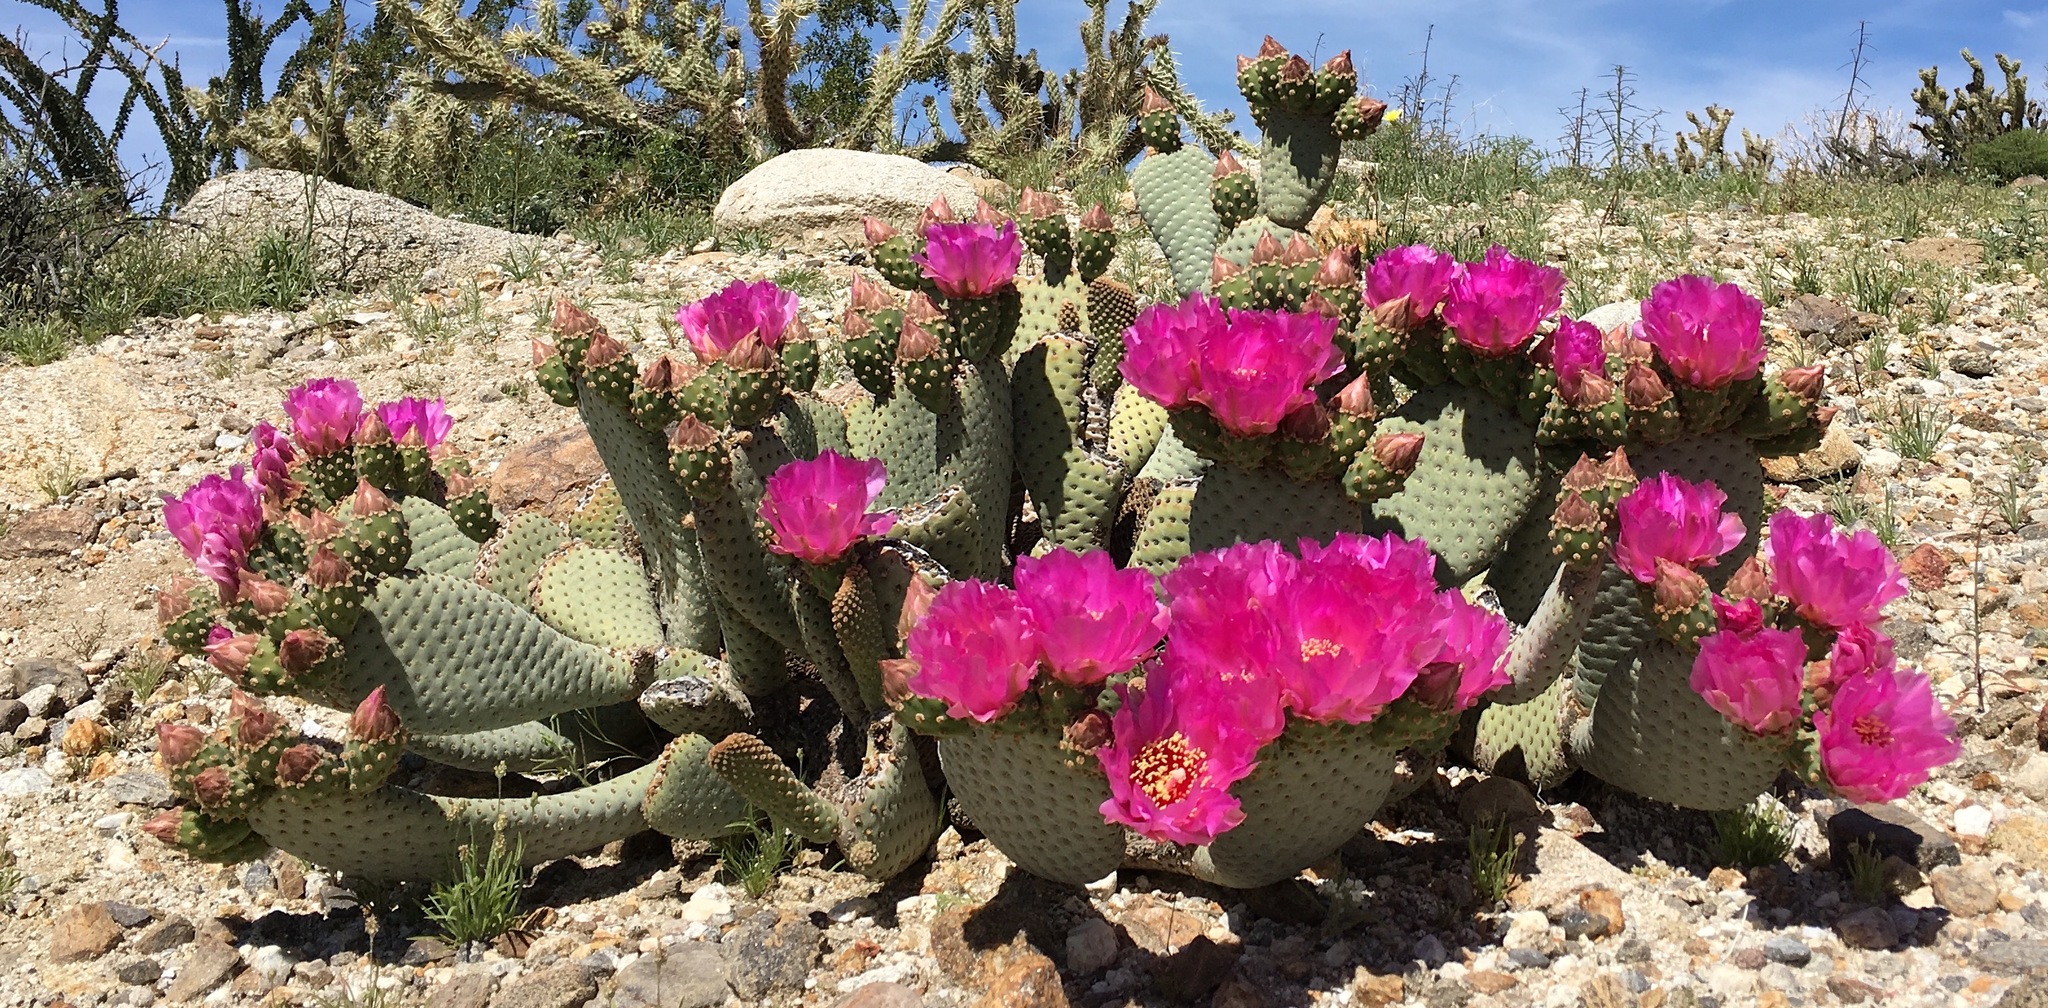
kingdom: Plantae
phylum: Tracheophyta
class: Magnoliopsida
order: Caryophyllales
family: Cactaceae
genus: Opuntia
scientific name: Opuntia basilaris
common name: Beavertail prickly-pear
